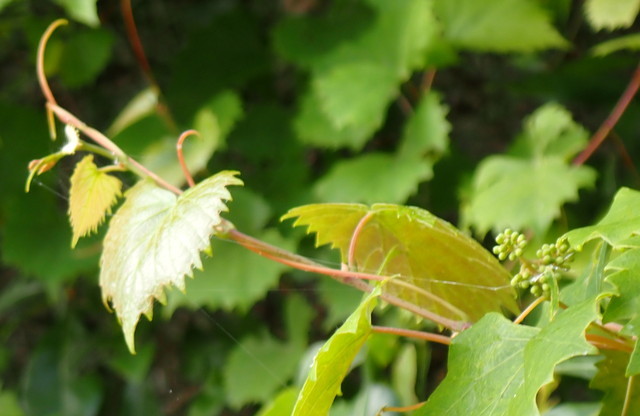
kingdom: Plantae
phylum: Tracheophyta
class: Magnoliopsida
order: Vitales
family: Vitaceae
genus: Vitis
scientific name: Vitis rotundifolia
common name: Muscadine grape
